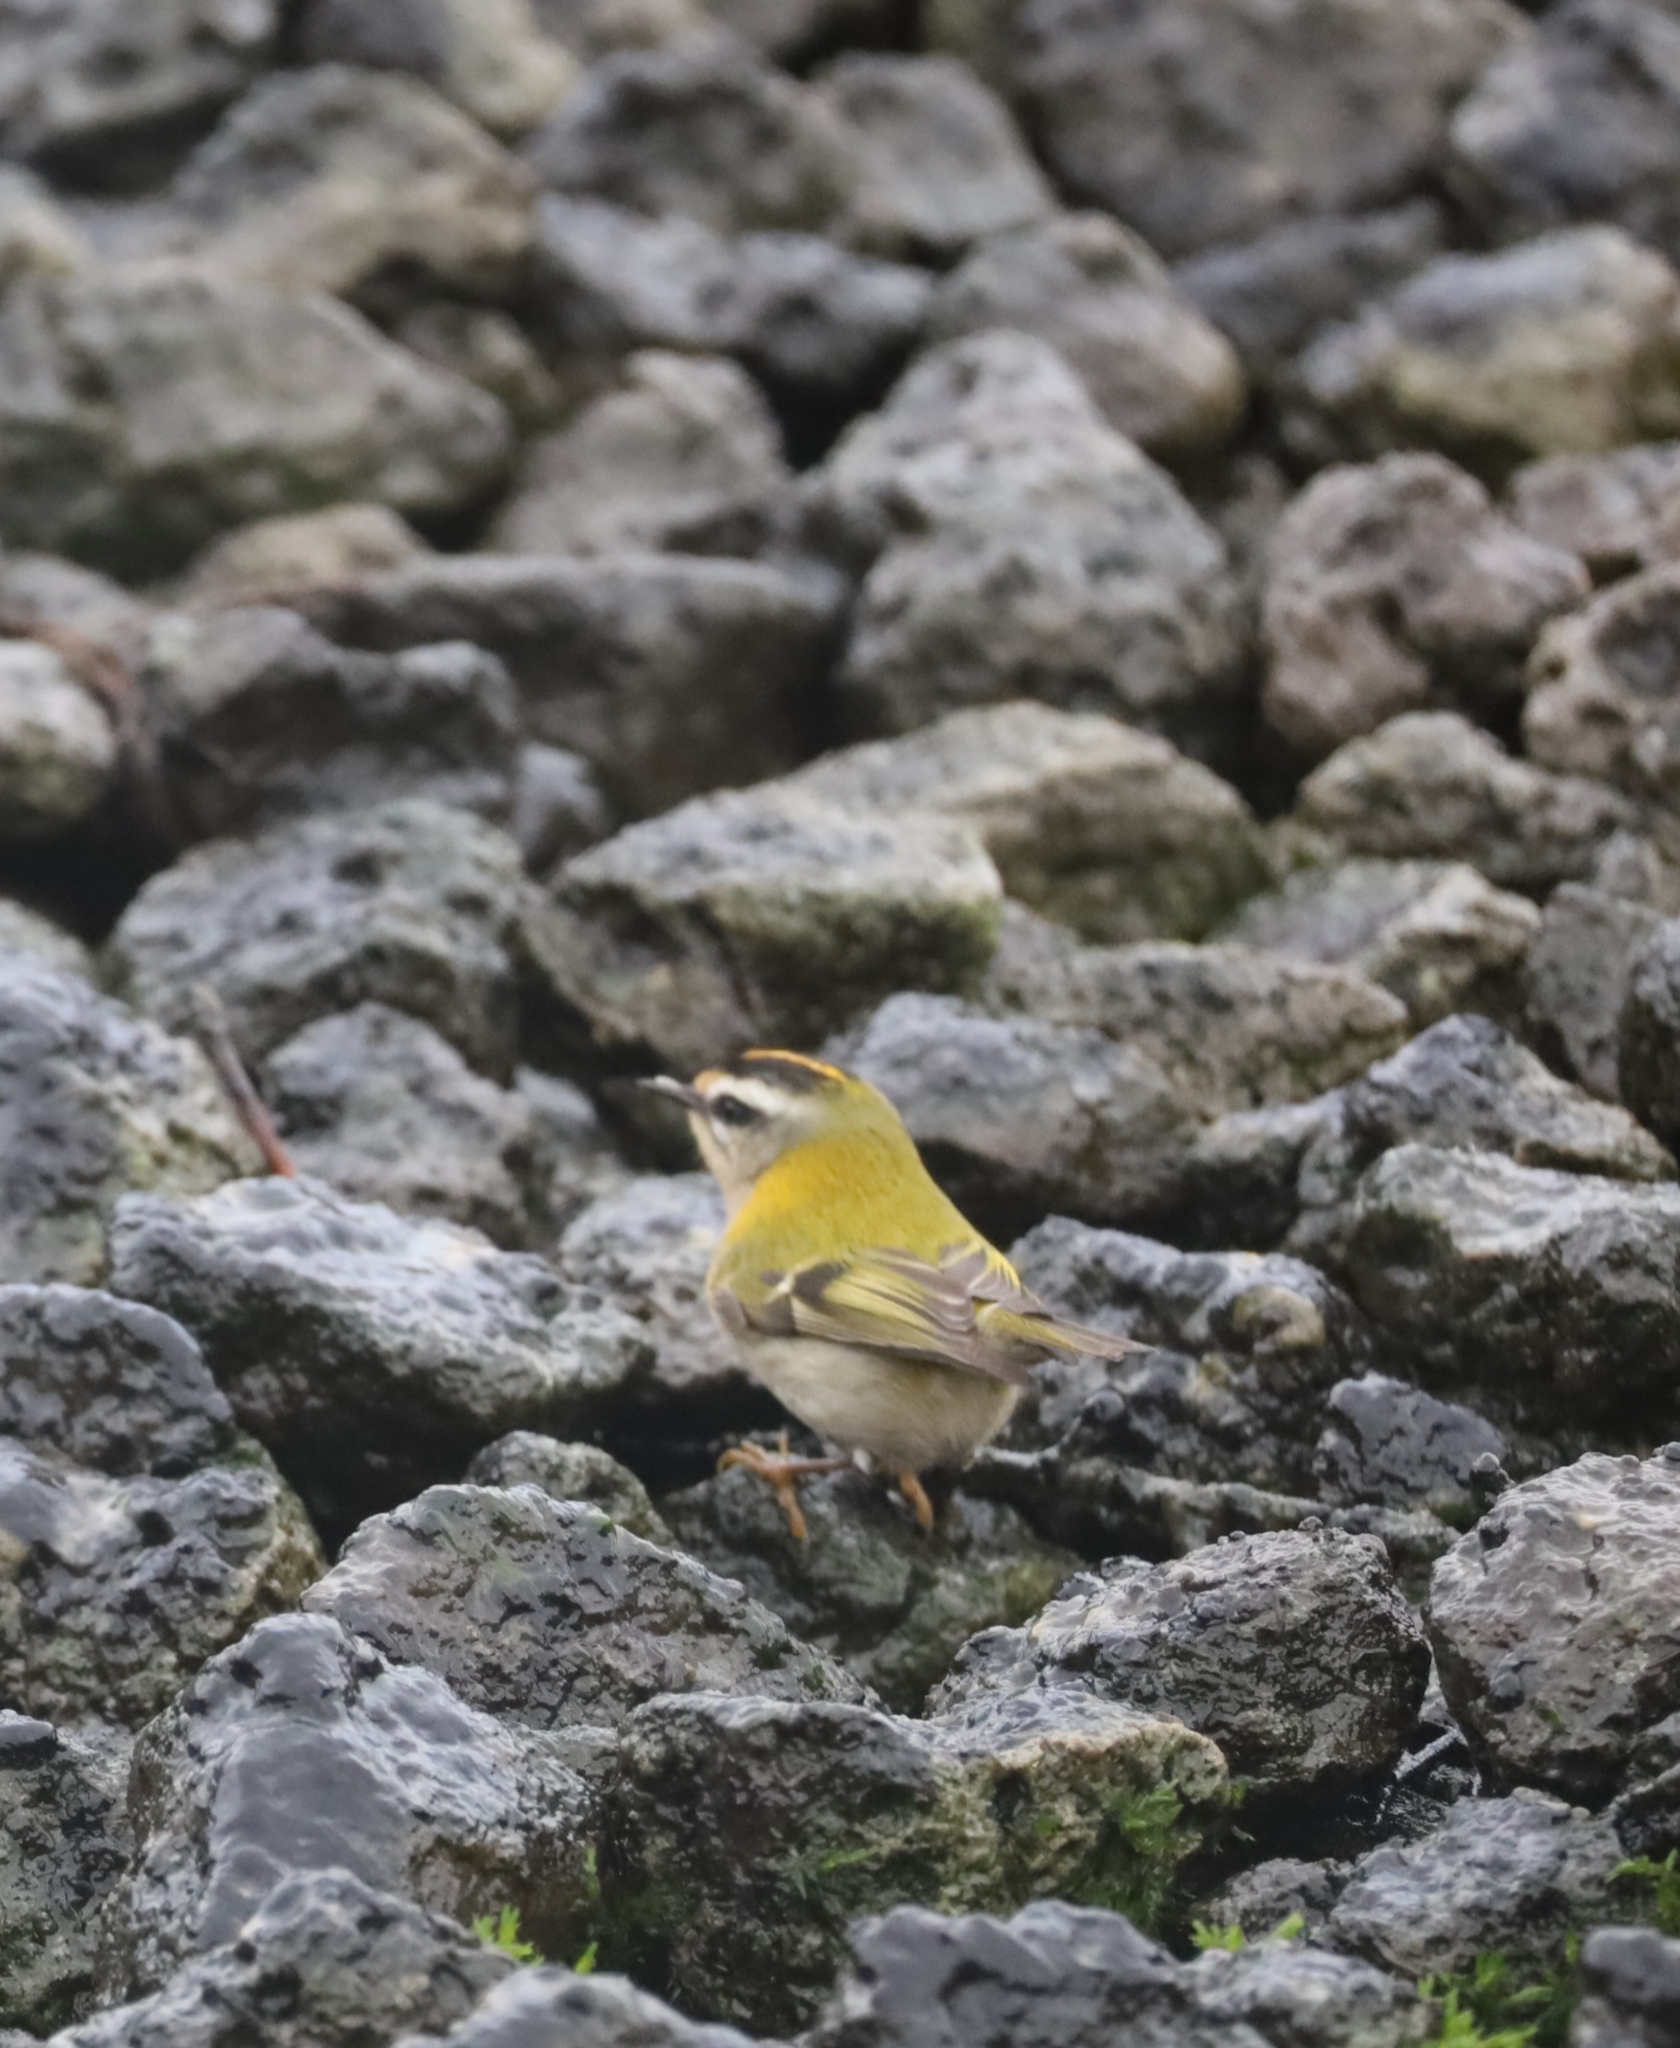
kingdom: Animalia
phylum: Chordata
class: Aves
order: Passeriformes
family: Regulidae
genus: Regulus
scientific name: Regulus ignicapilla
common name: Firecrest
